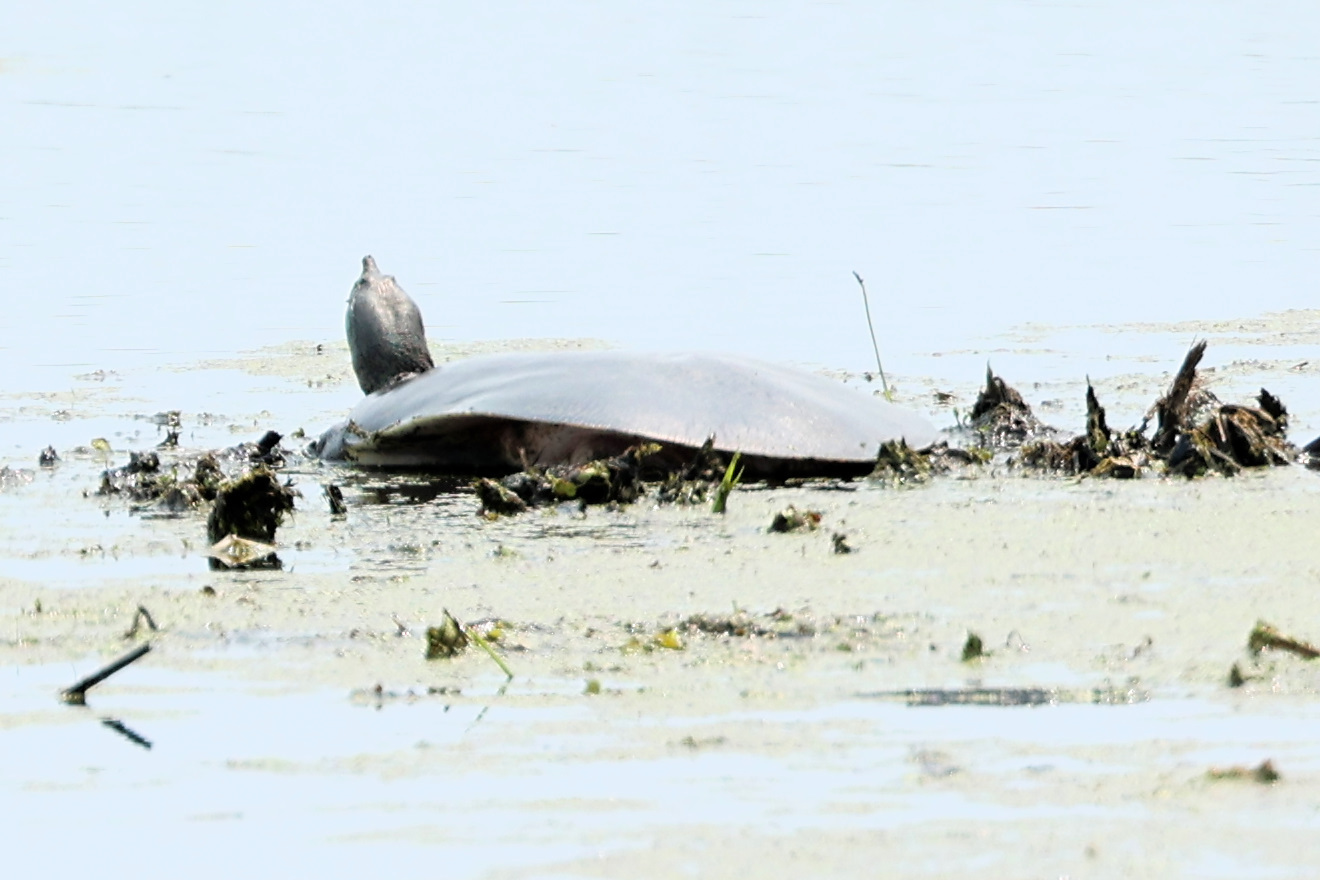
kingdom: Animalia
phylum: Chordata
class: Testudines
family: Trionychidae
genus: Apalone
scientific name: Apalone spinifera
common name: Spiny softshell turtle
